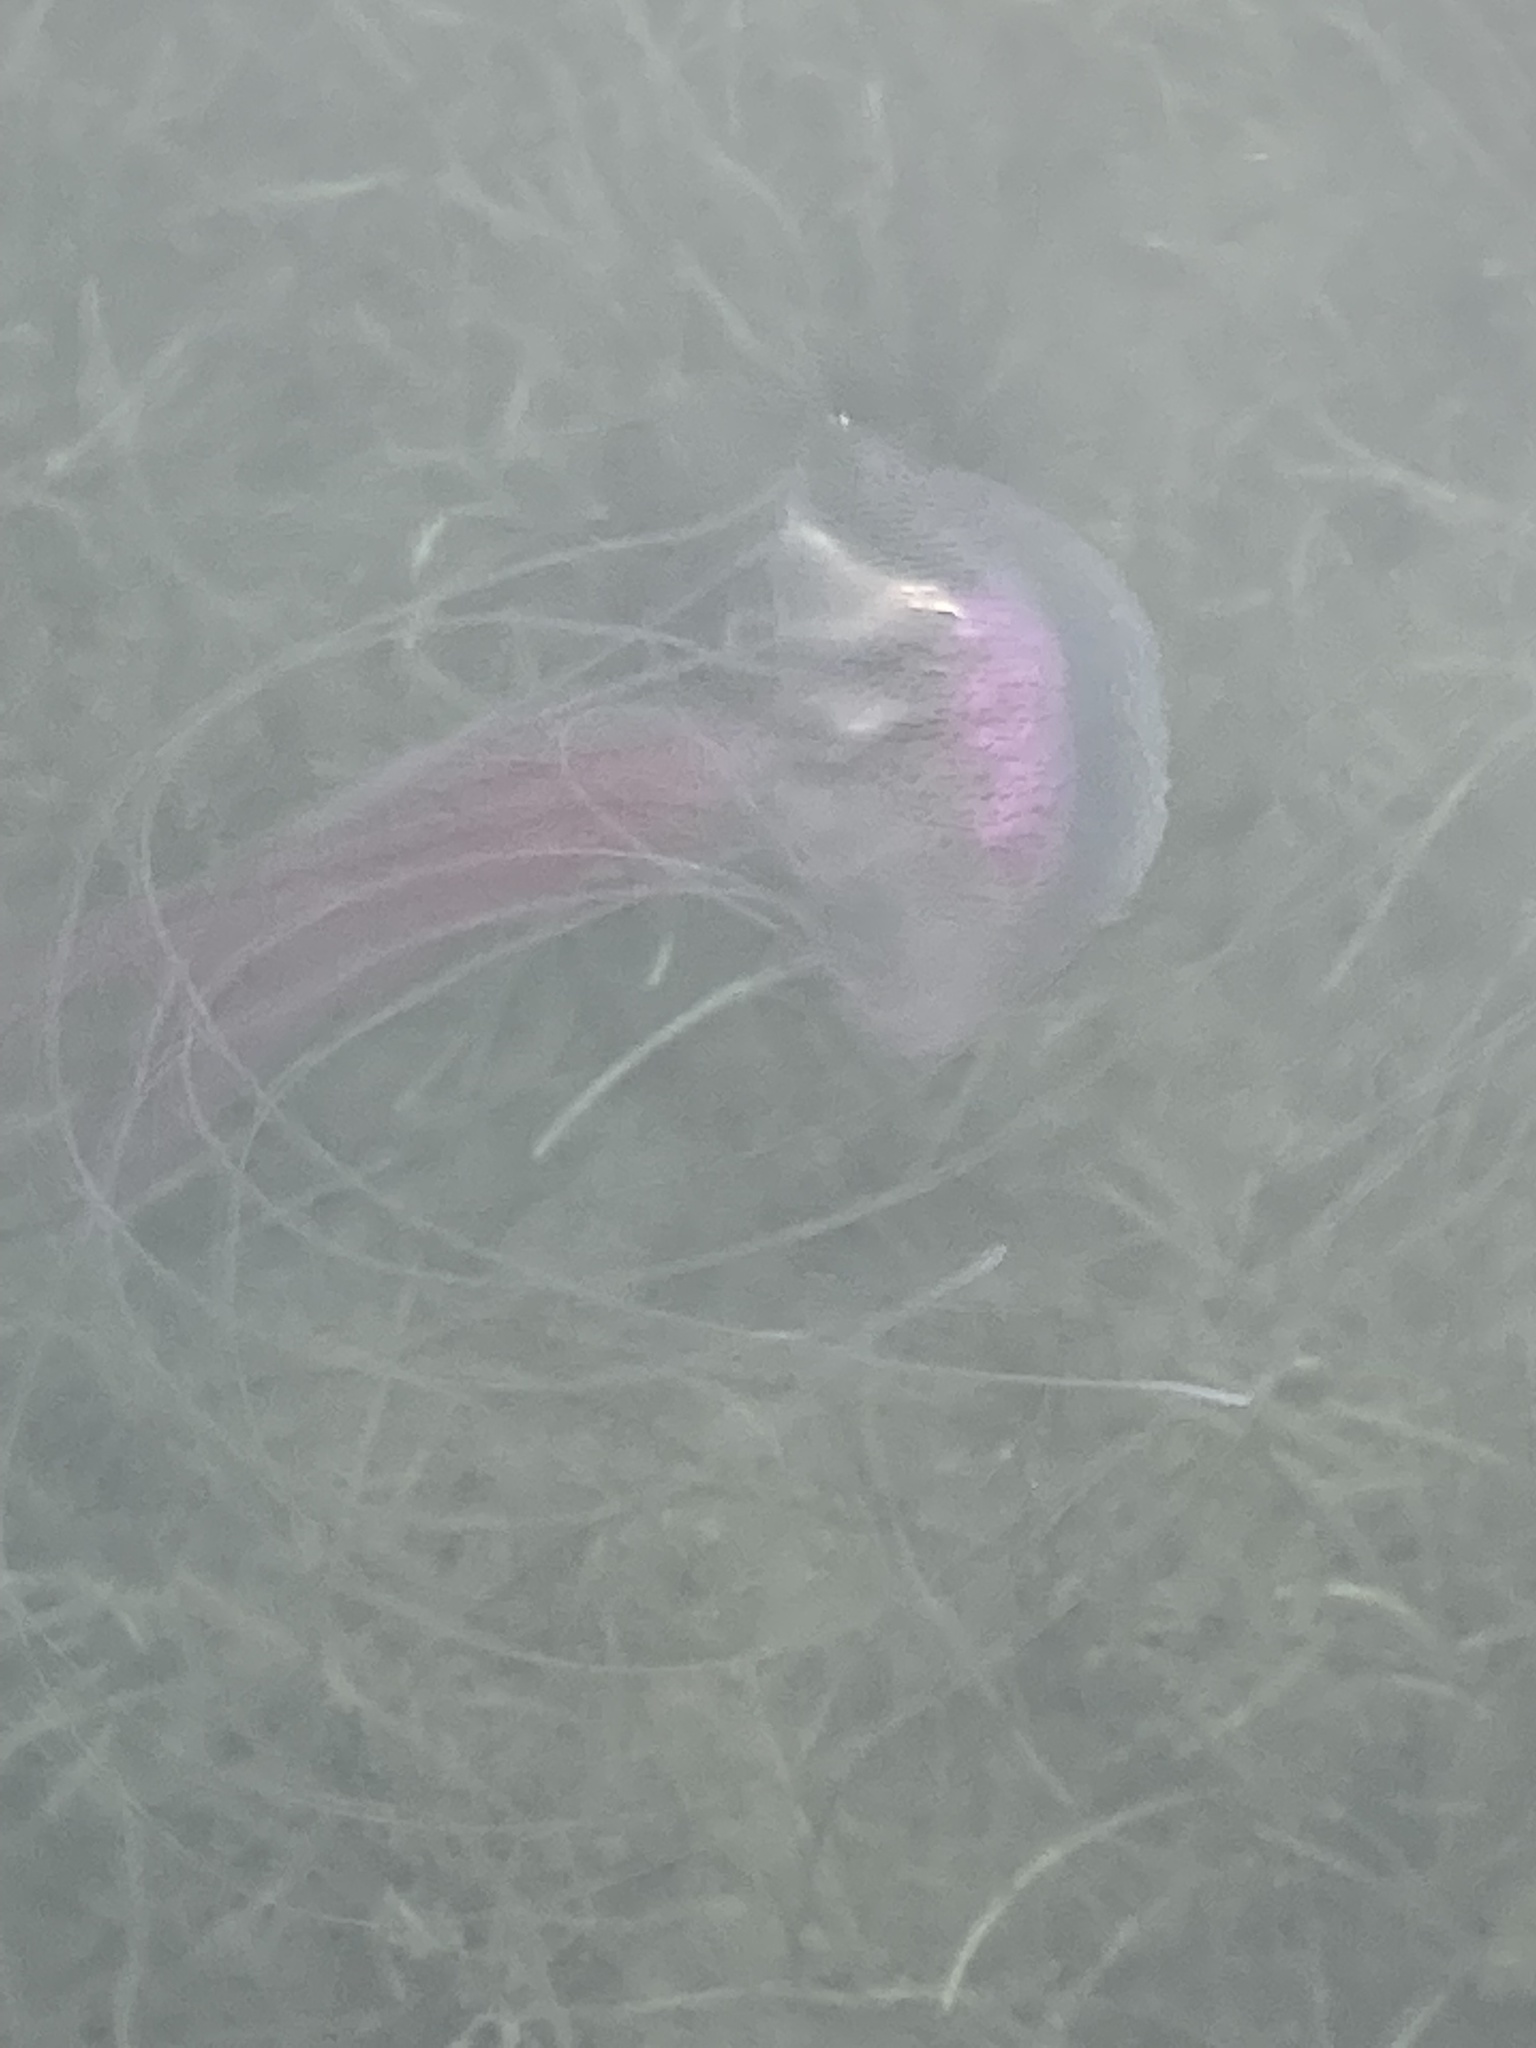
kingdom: Animalia
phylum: Cnidaria
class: Scyphozoa
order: Semaeostomeae
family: Pelagiidae
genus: Pelagia
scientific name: Pelagia noctiluca
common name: Mauve stinger
